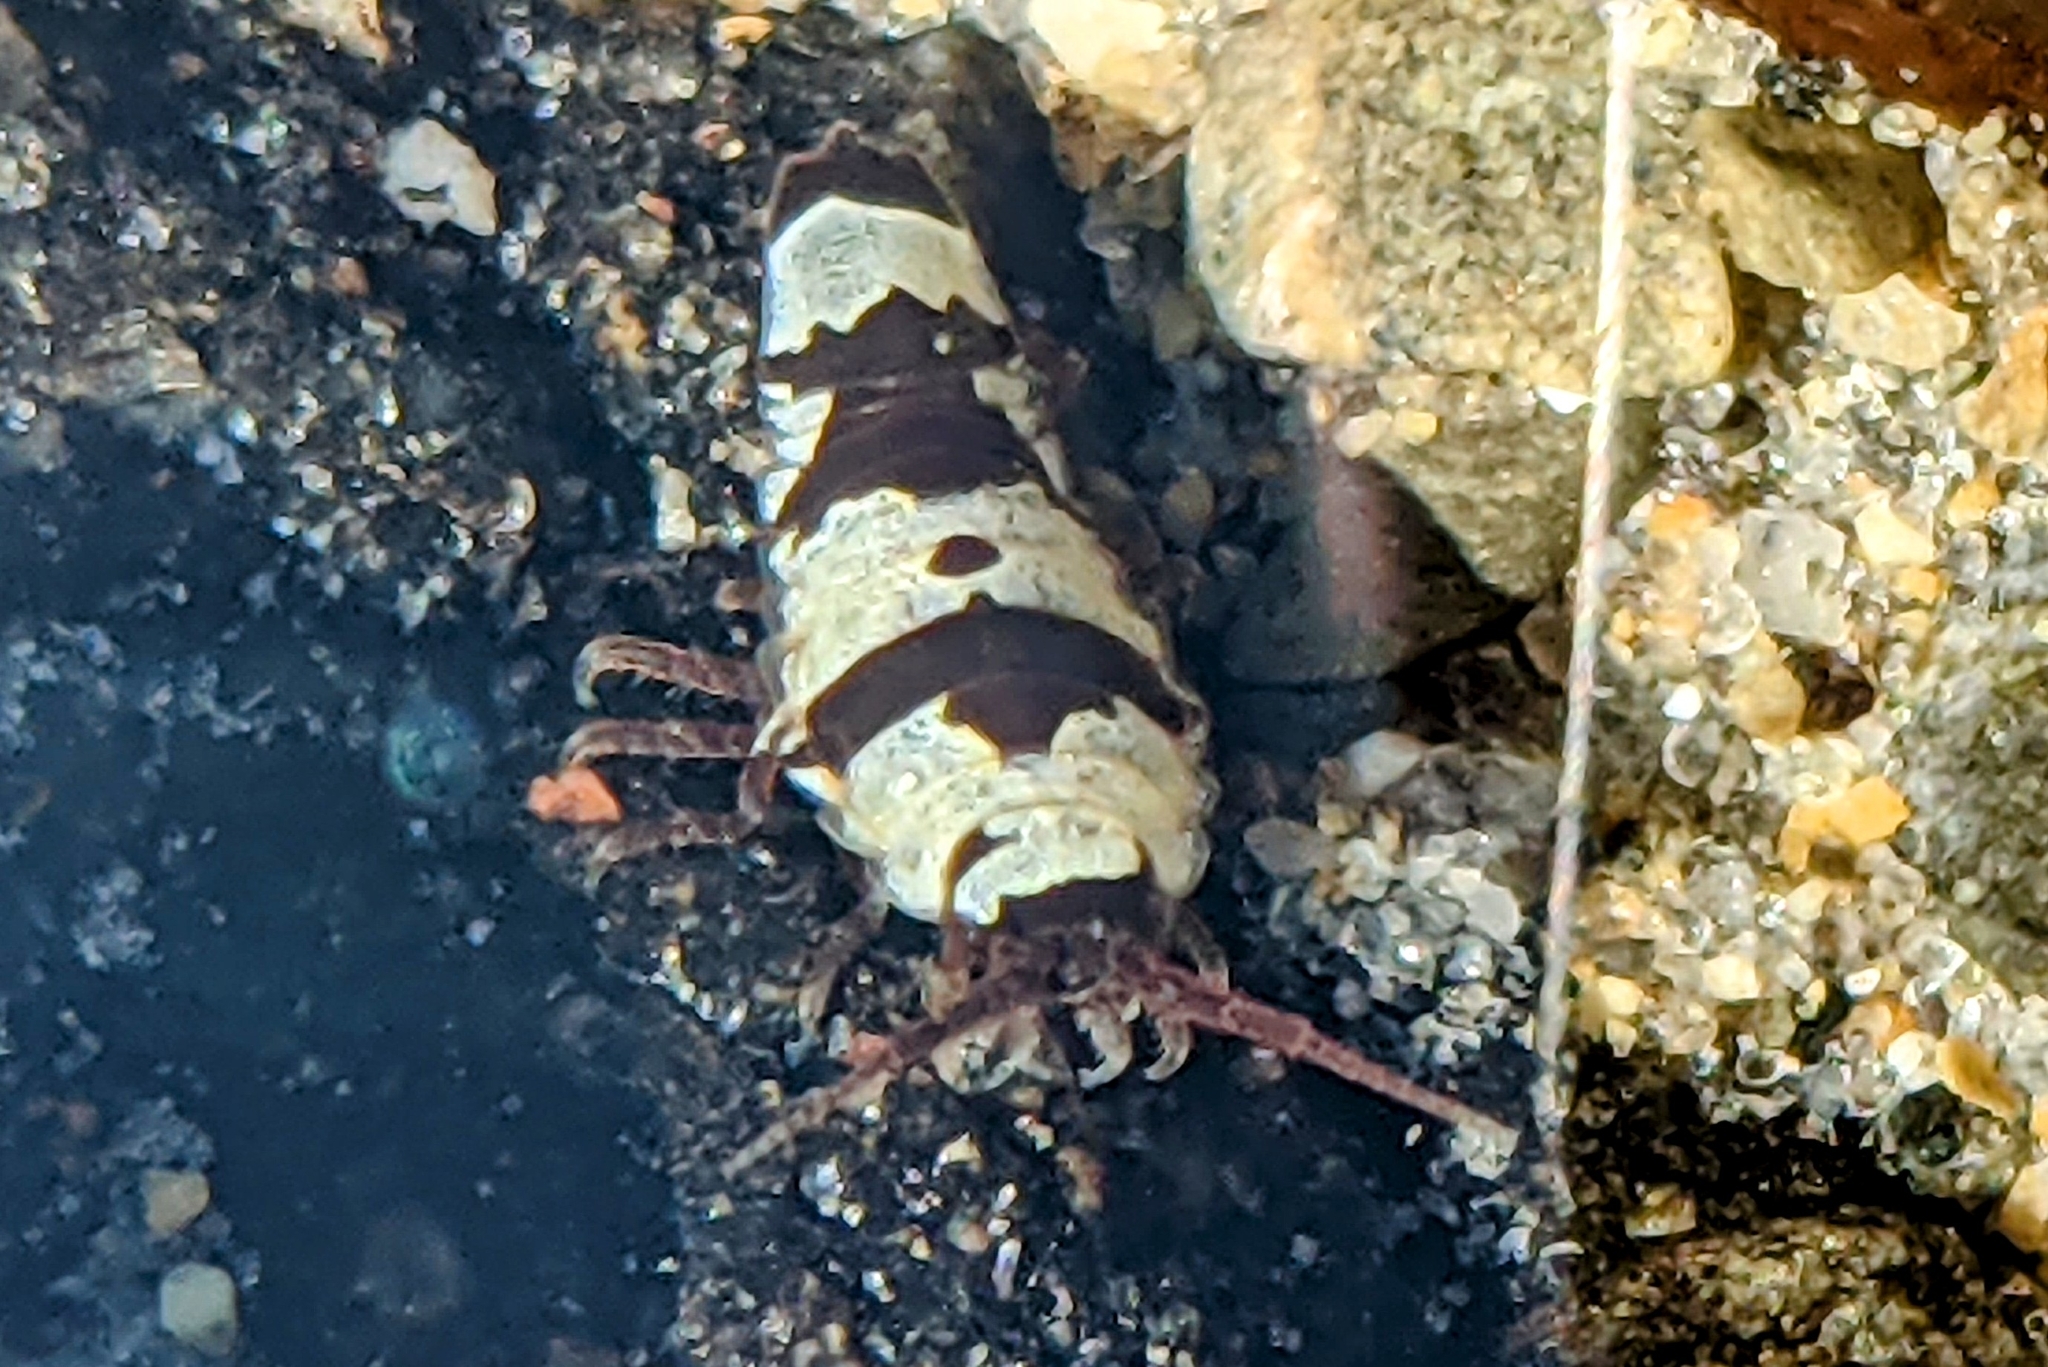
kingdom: Animalia
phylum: Arthropoda
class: Malacostraca
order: Isopoda
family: Idoteidae
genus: Idotea
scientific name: Idotea balthica
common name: Baltic isopod
